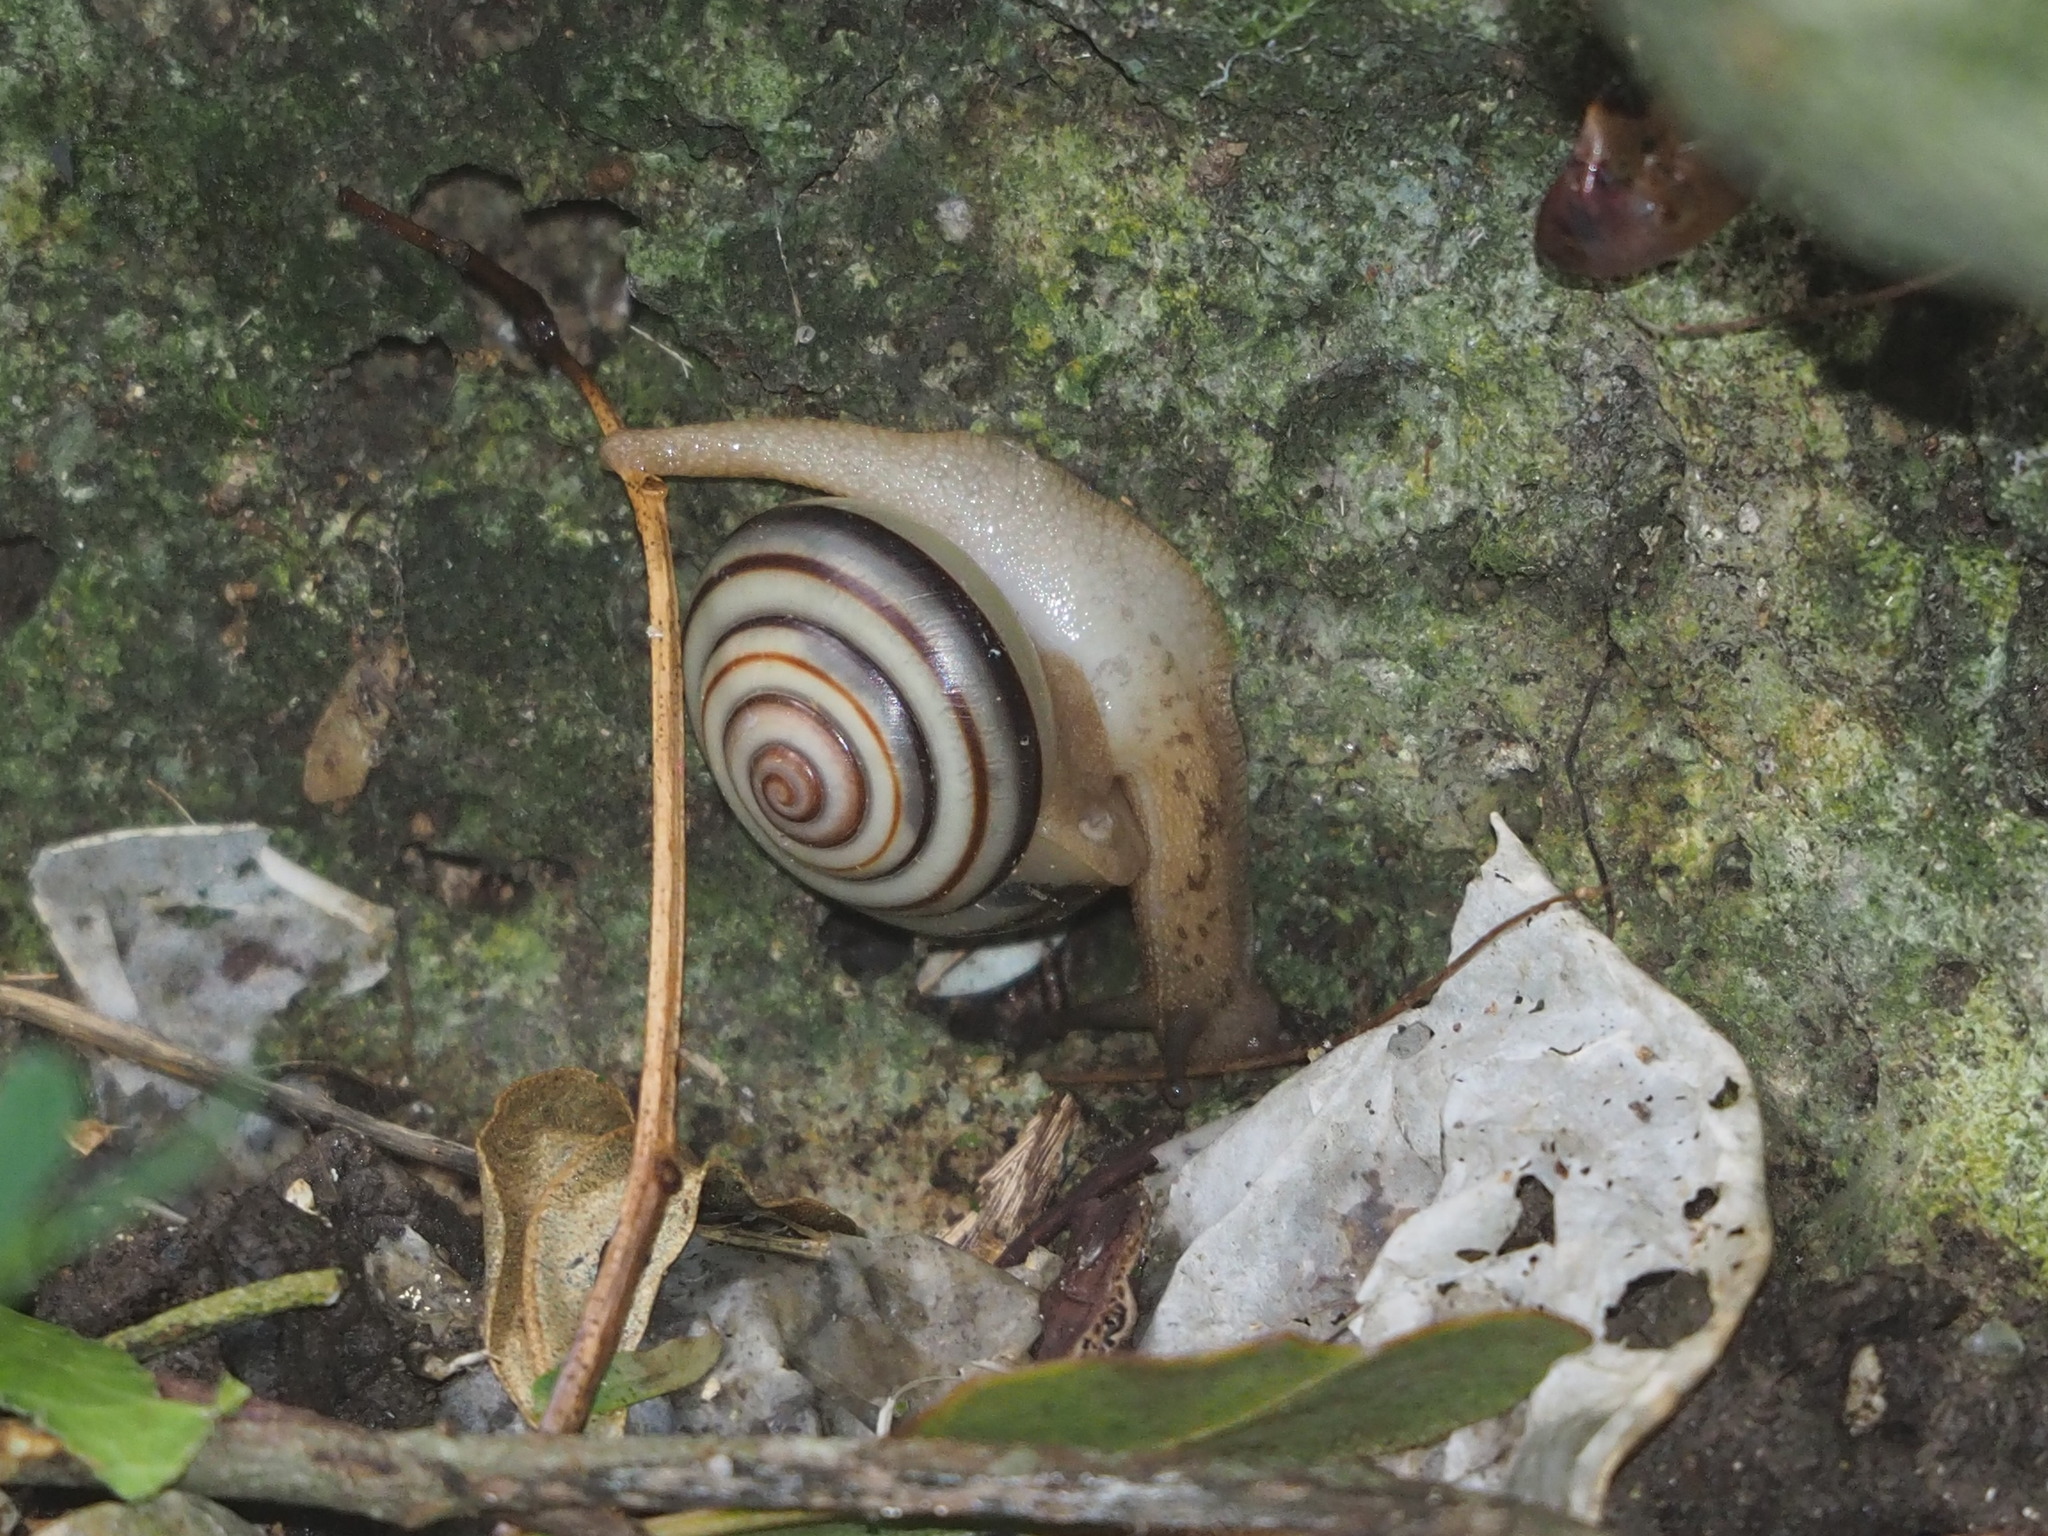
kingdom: Animalia
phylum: Mollusca
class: Gastropoda
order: Stylommatophora
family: Camaenidae
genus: Pancala
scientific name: Pancala batanica
